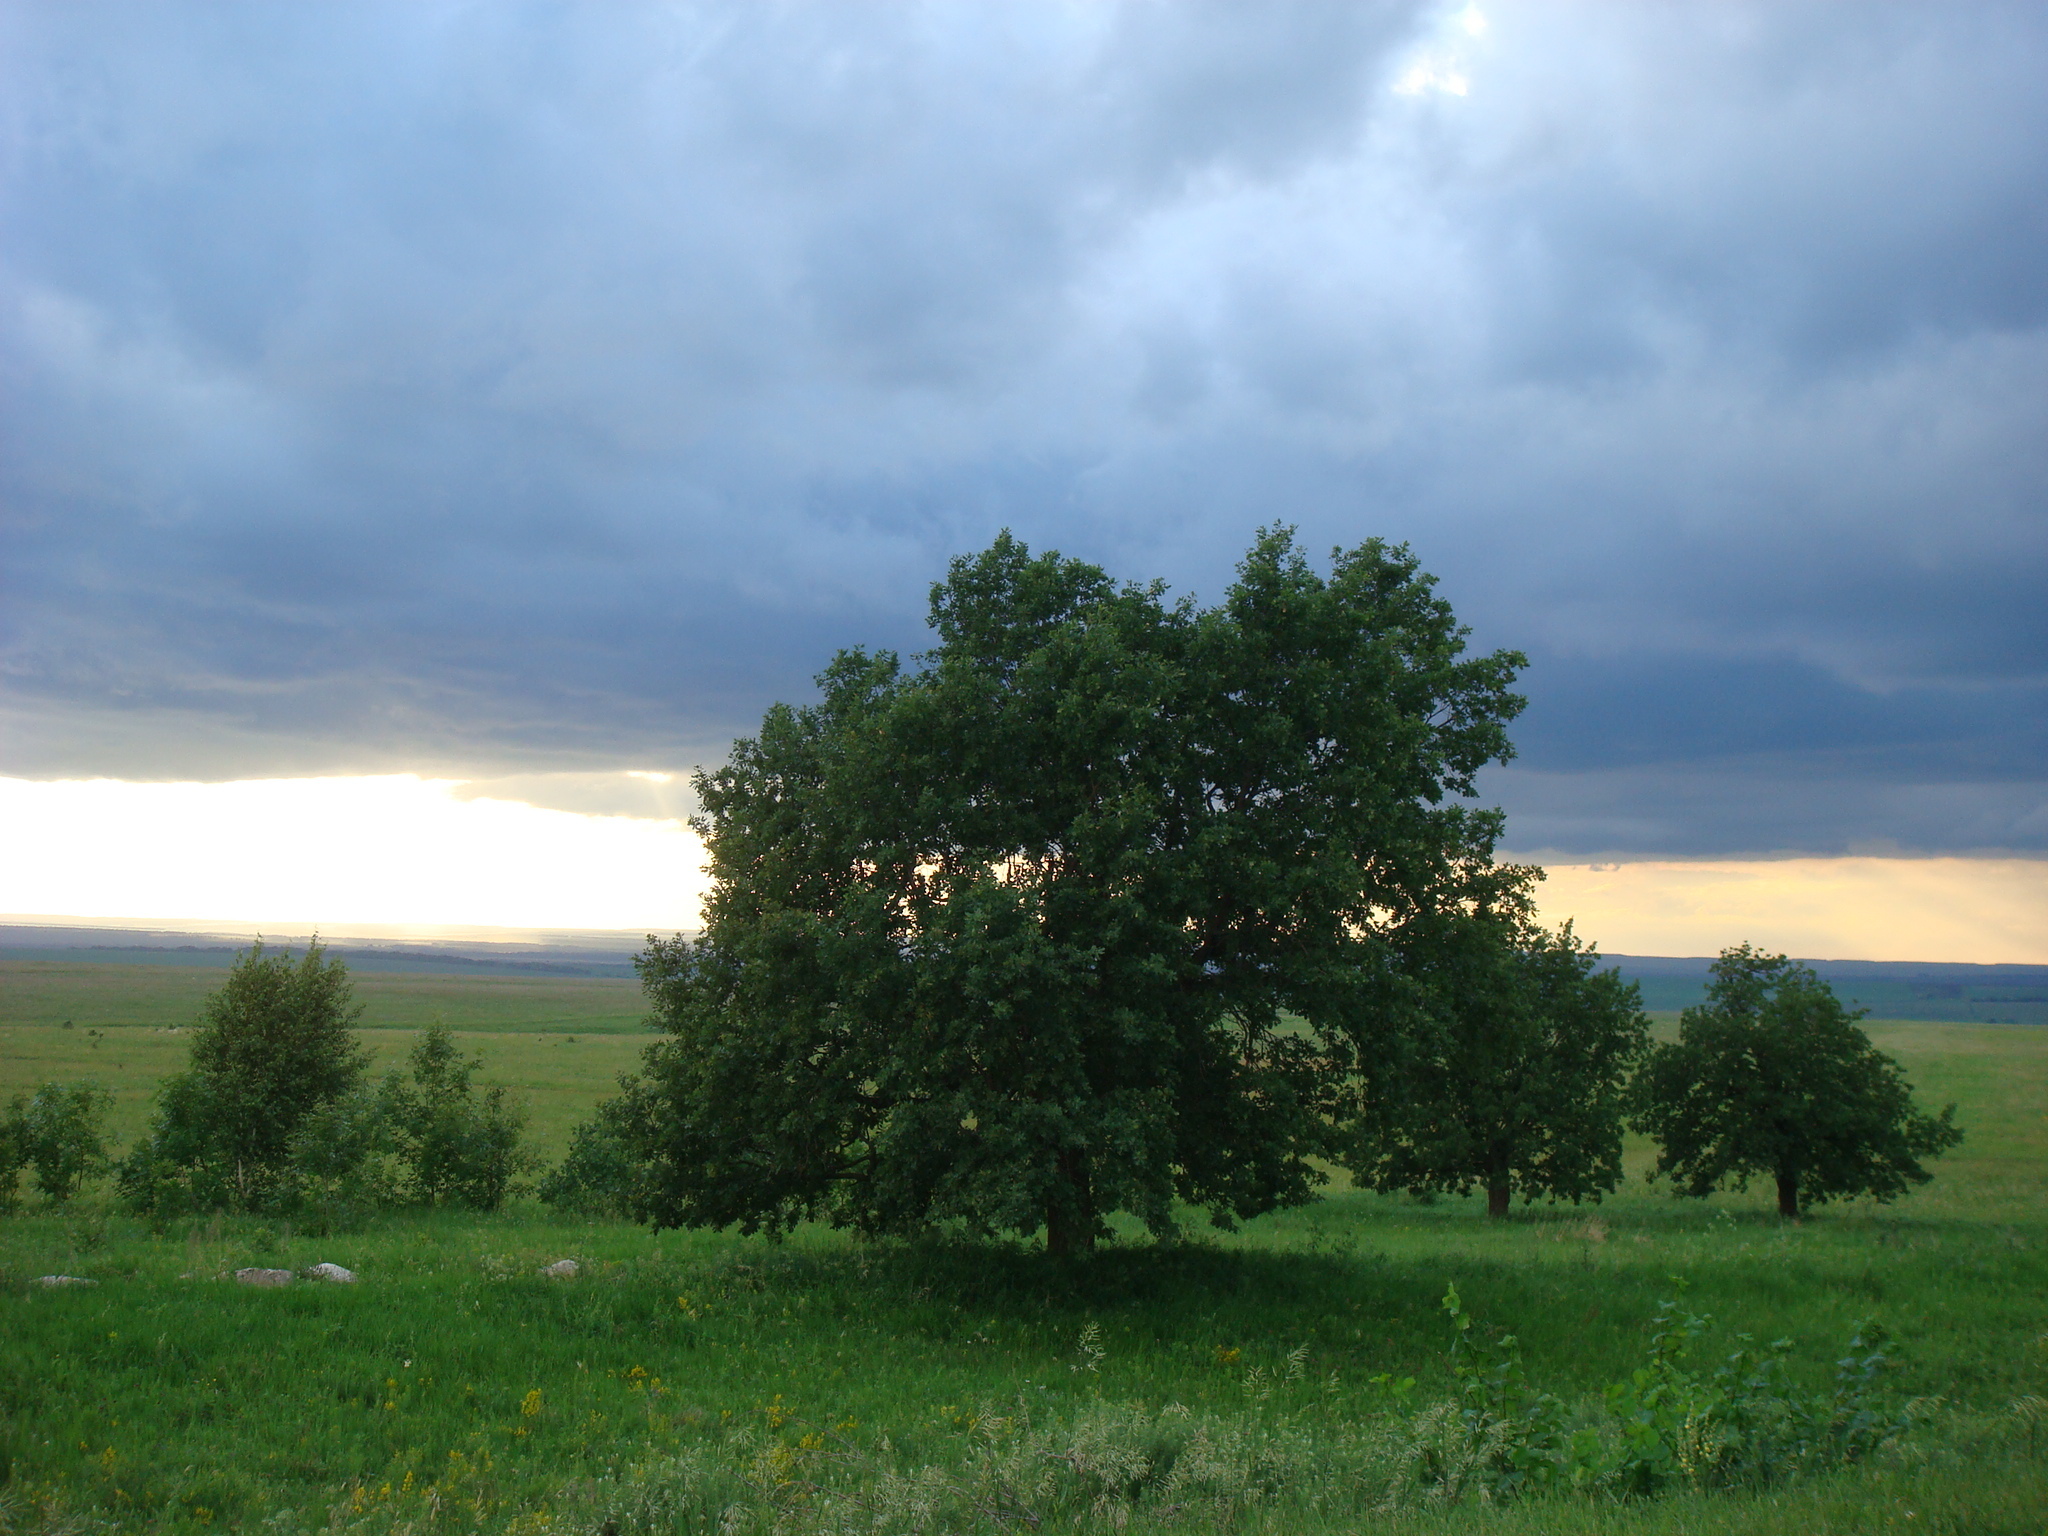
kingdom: Plantae
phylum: Tracheophyta
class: Magnoliopsida
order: Fagales
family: Fagaceae
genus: Quercus
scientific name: Quercus robur
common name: Pedunculate oak
